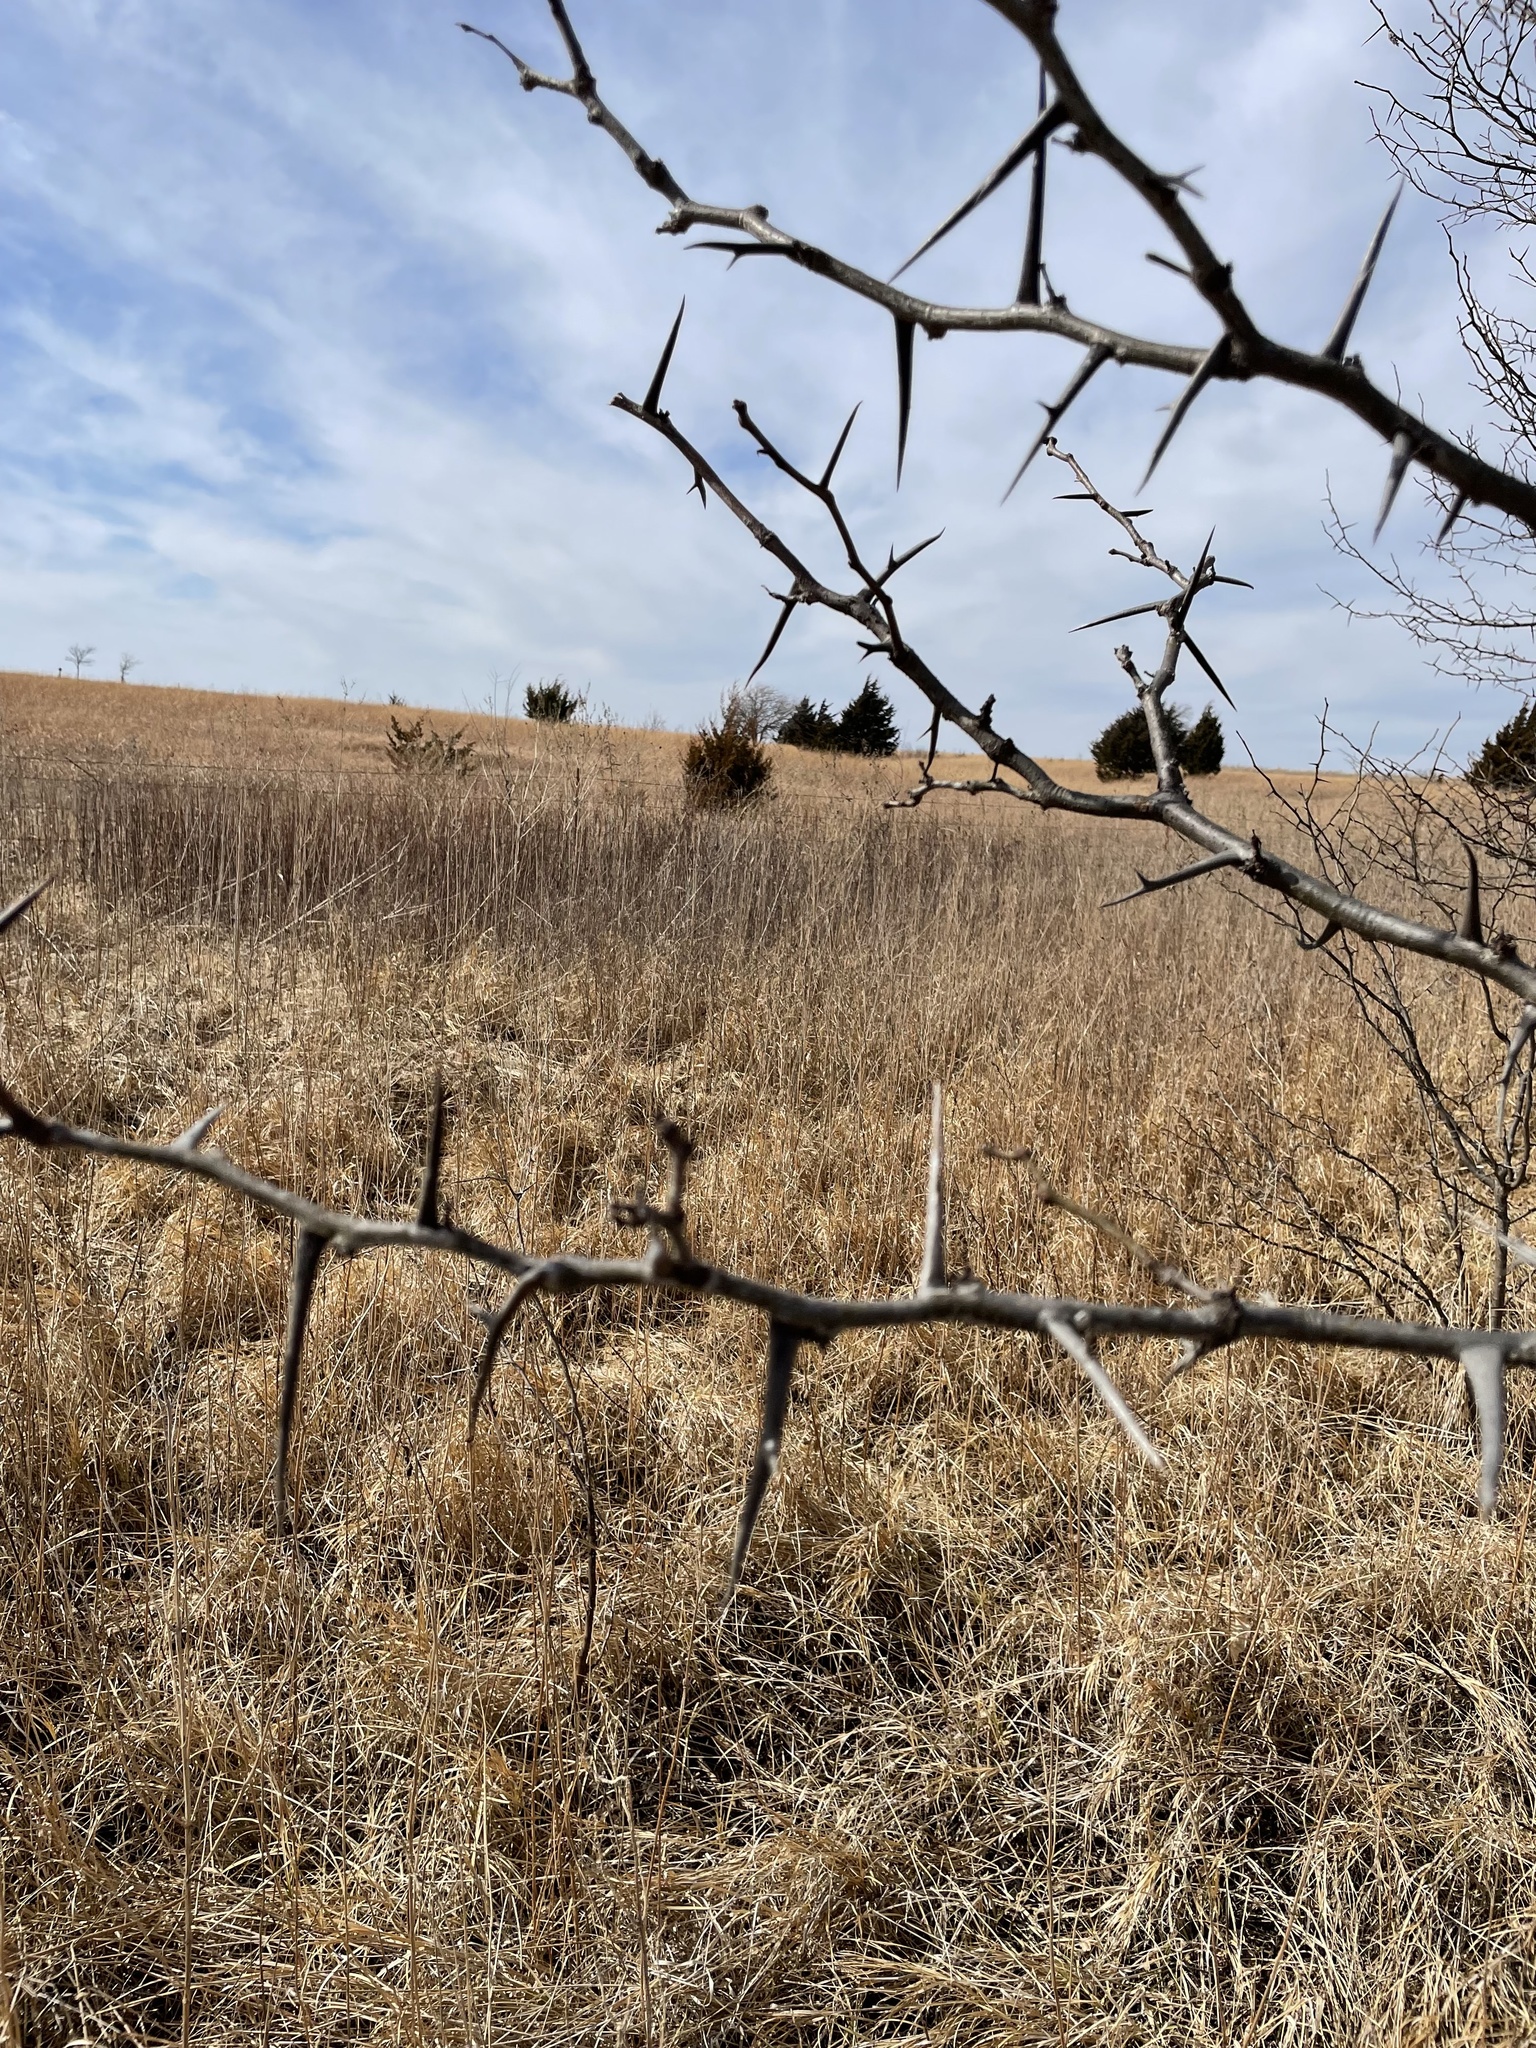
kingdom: Plantae
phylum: Tracheophyta
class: Magnoliopsida
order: Fabales
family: Fabaceae
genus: Gleditsia
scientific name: Gleditsia triacanthos
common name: Common honeylocust
